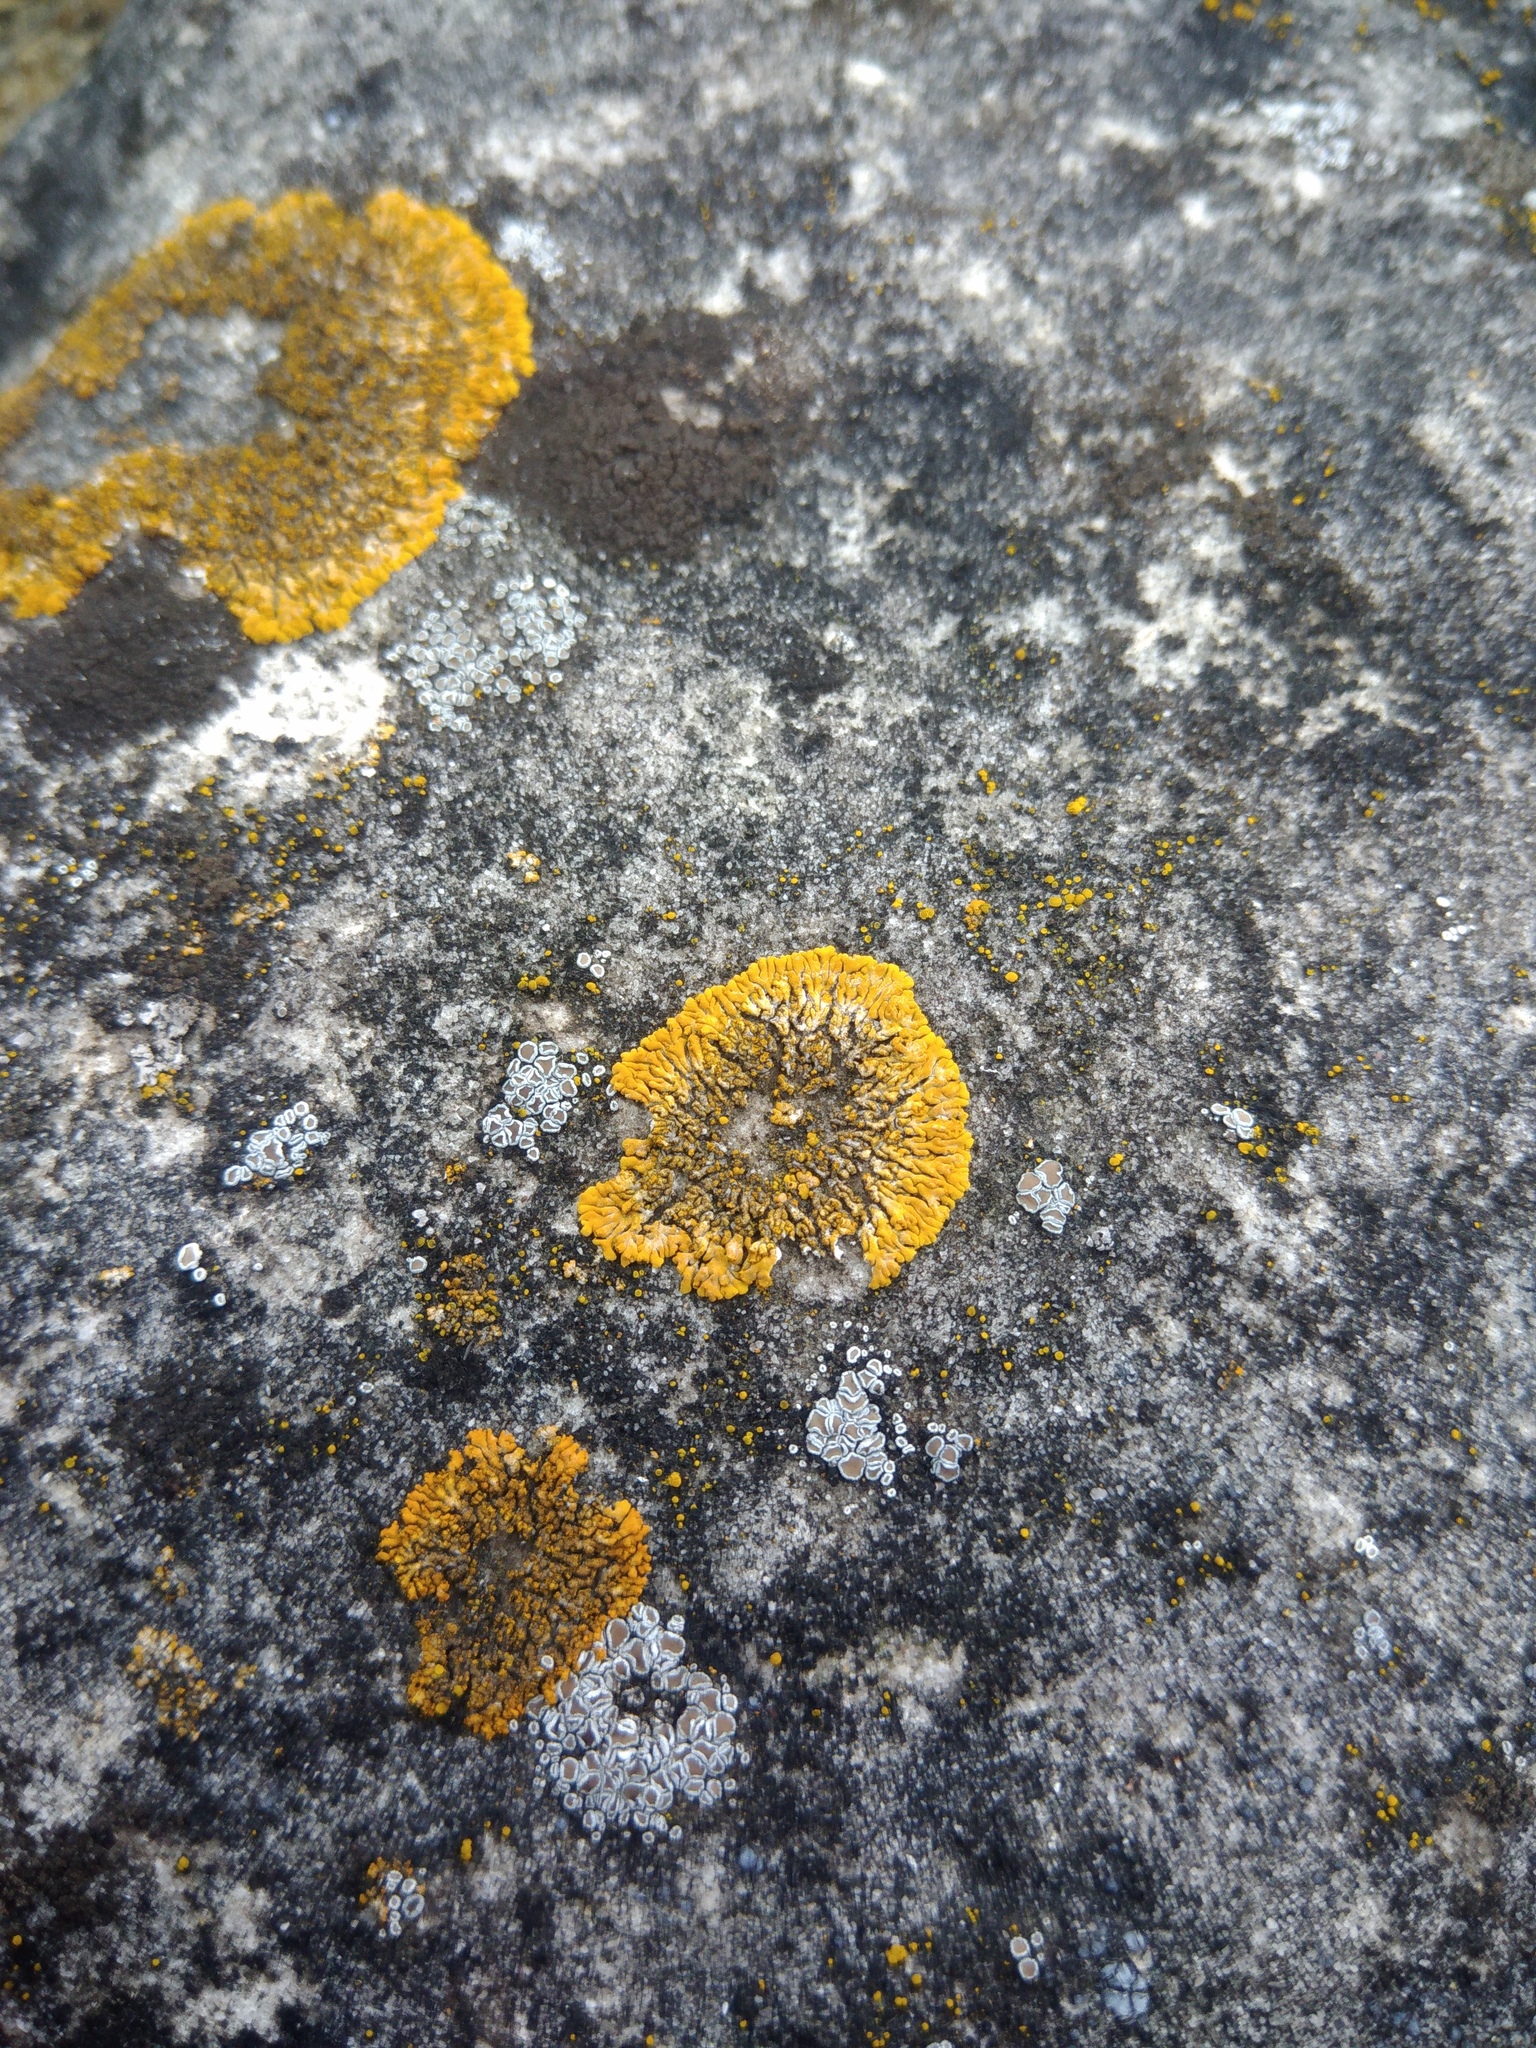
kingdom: Fungi
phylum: Ascomycota
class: Lecanoromycetes
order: Teloschistales
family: Teloschistaceae
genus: Calogaya
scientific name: Calogaya decipiens
